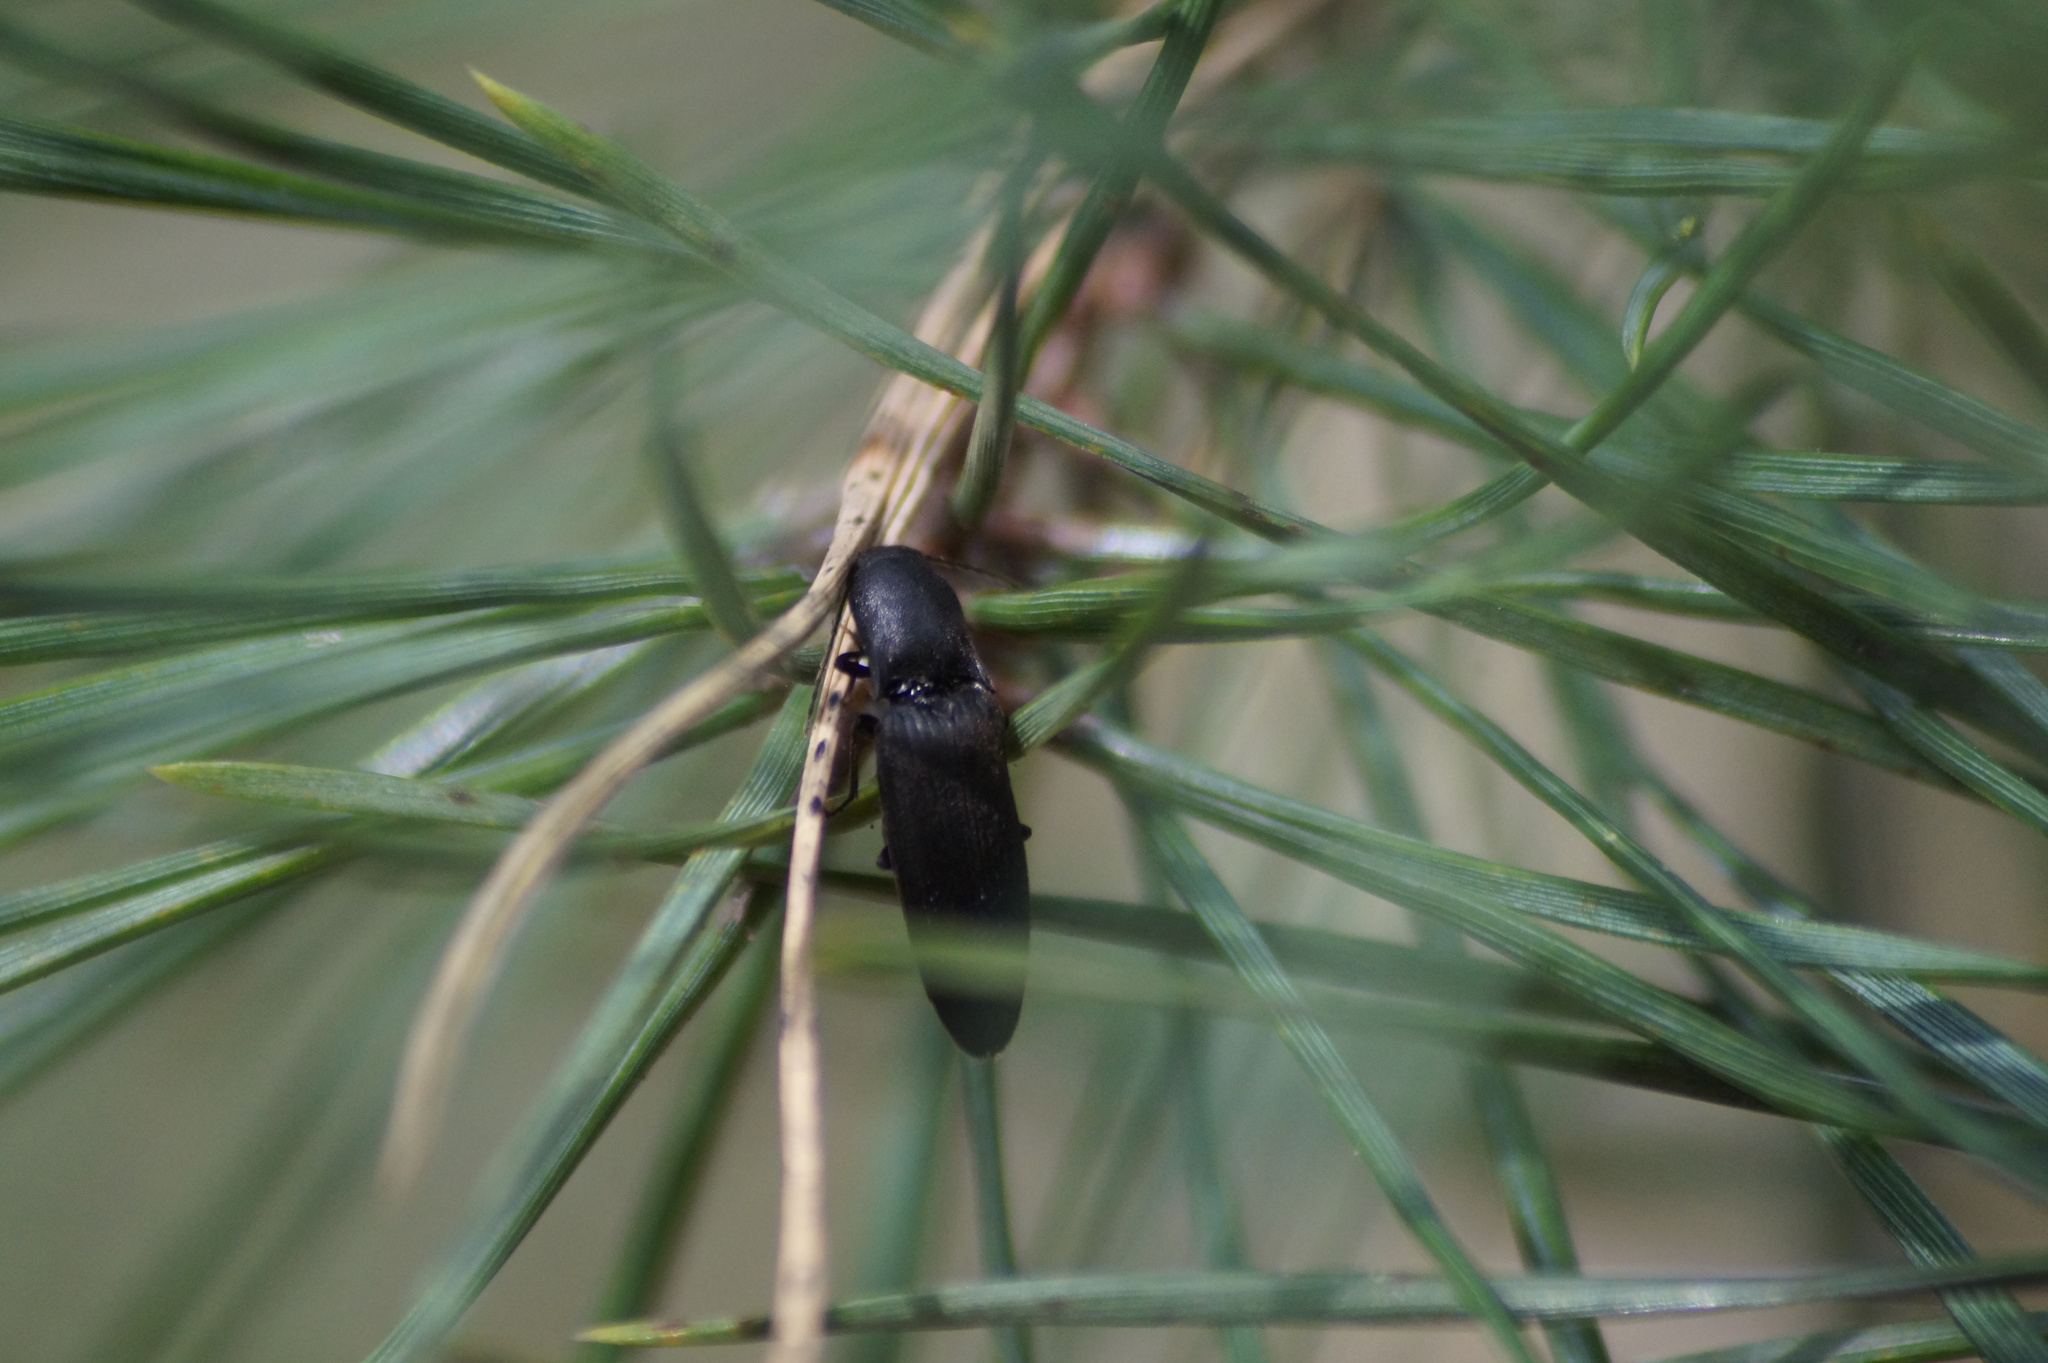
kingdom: Animalia
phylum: Arthropoda
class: Insecta
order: Coleoptera
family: Elateridae
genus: Ectinus
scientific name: Ectinus aterrimus
